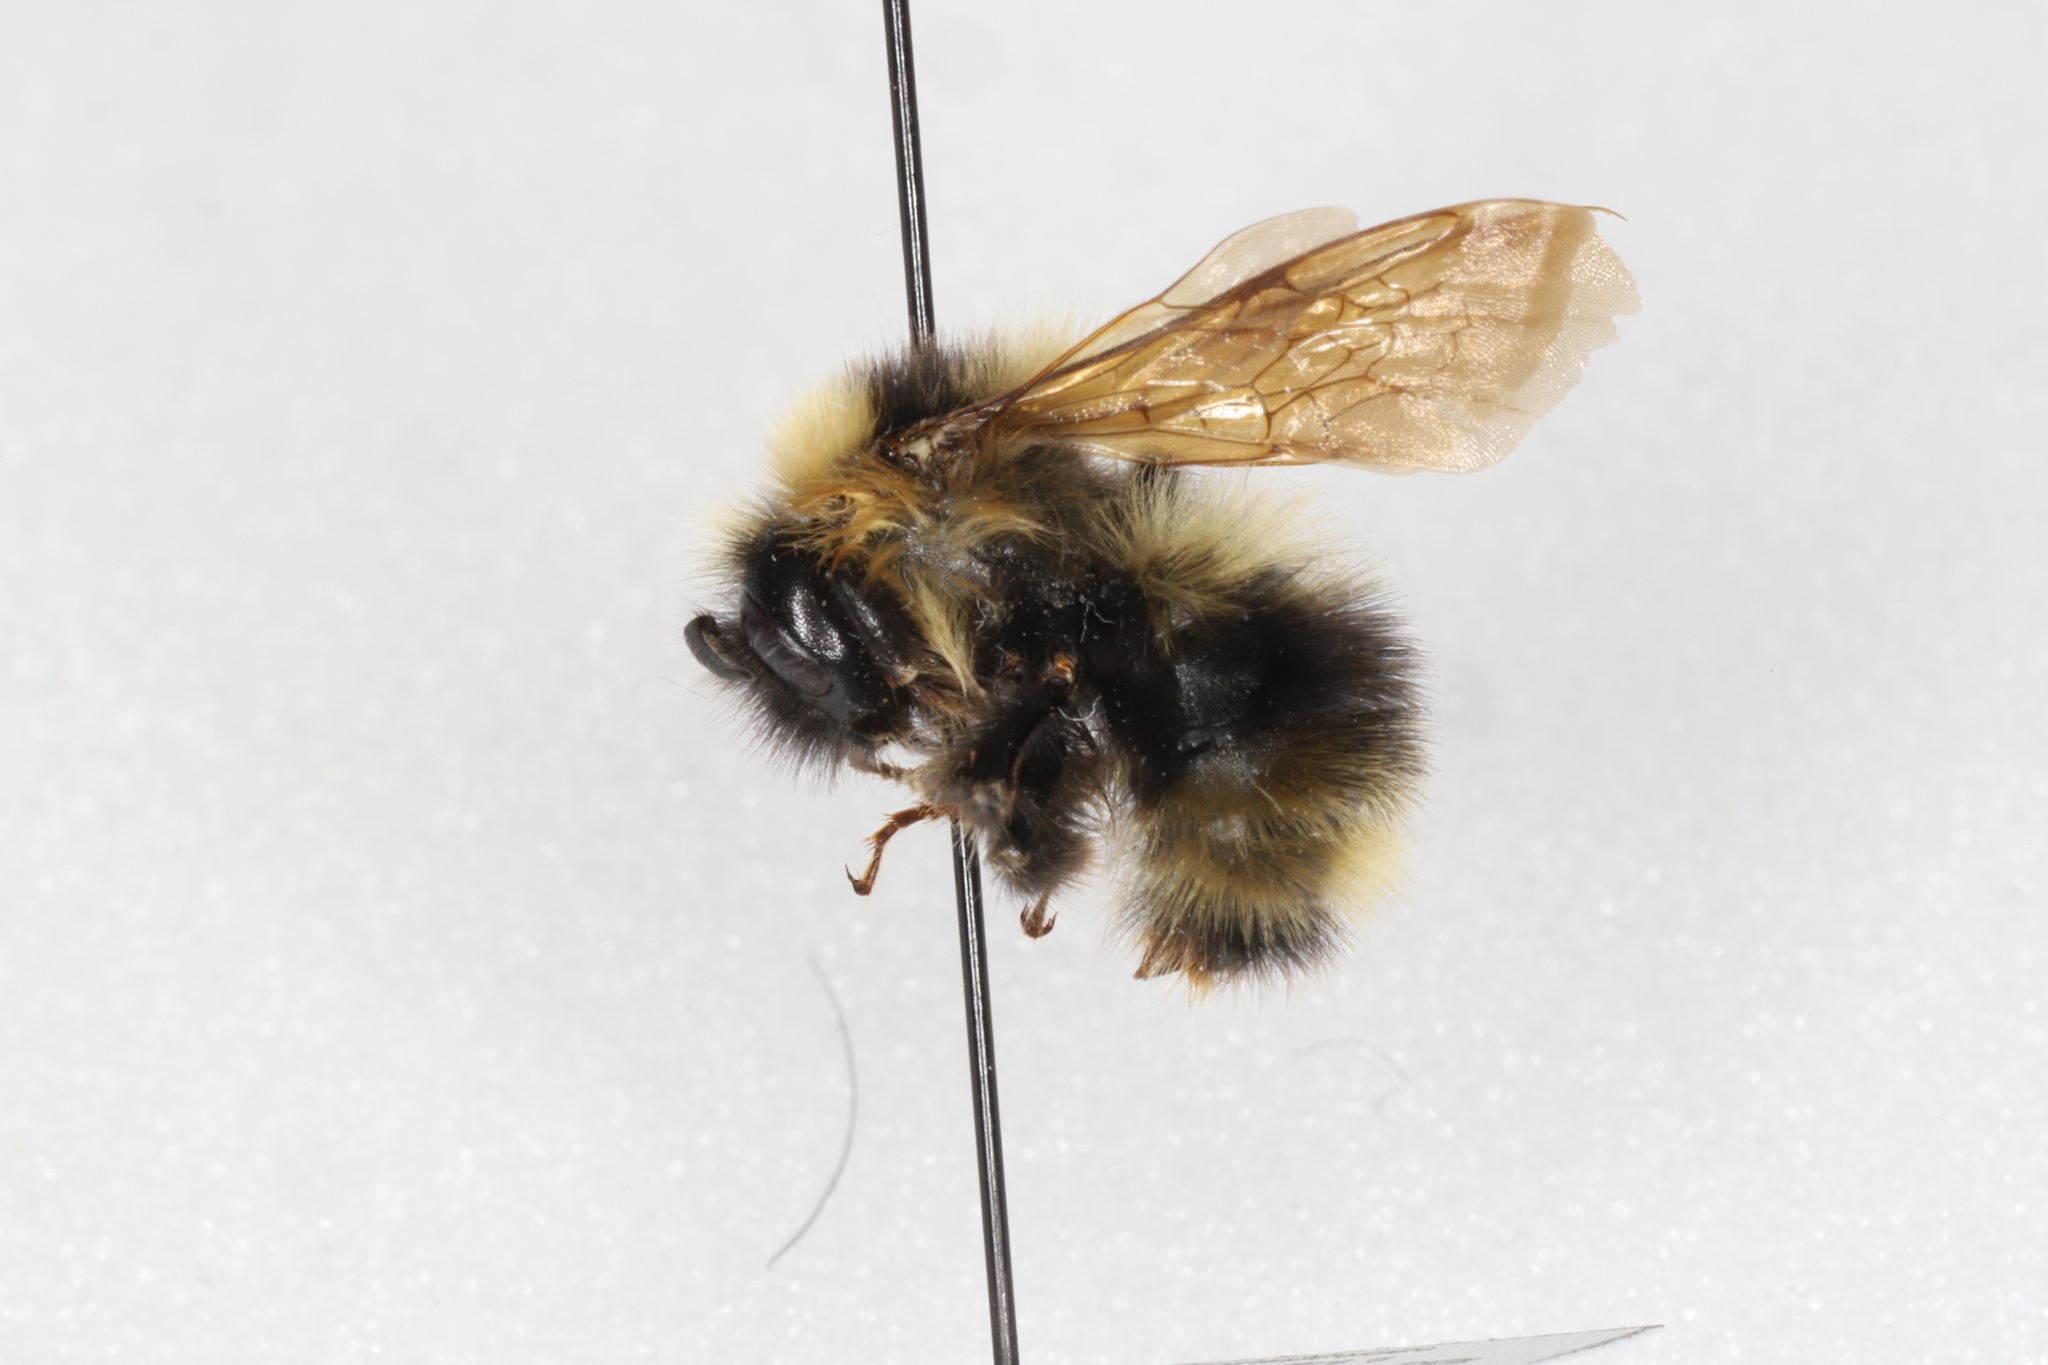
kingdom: Animalia
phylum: Arthropoda
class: Insecta
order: Hymenoptera
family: Apidae
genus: Bombus
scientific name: Bombus flavidus
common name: Fernald cuckoo bumble bee
